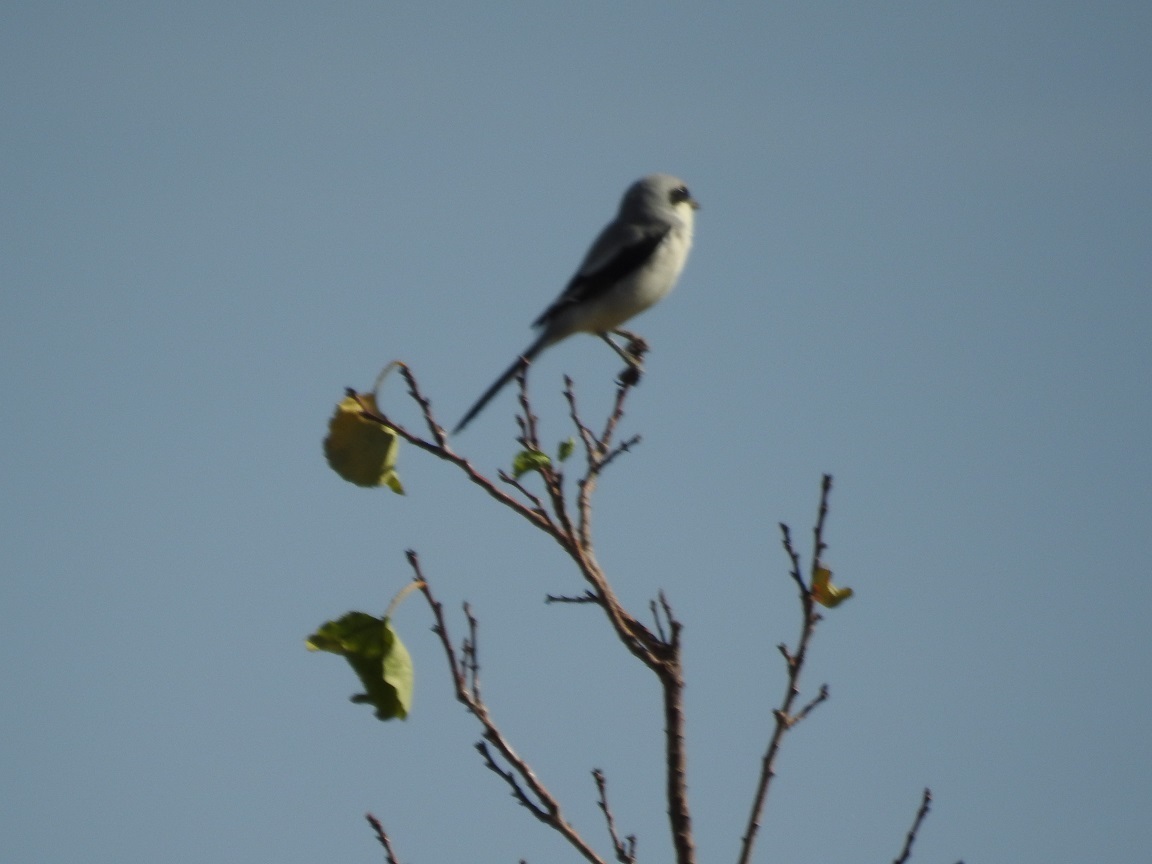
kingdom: Animalia
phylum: Chordata
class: Aves
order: Passeriformes
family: Laniidae
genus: Lanius
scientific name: Lanius excubitor
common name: Great grey shrike
